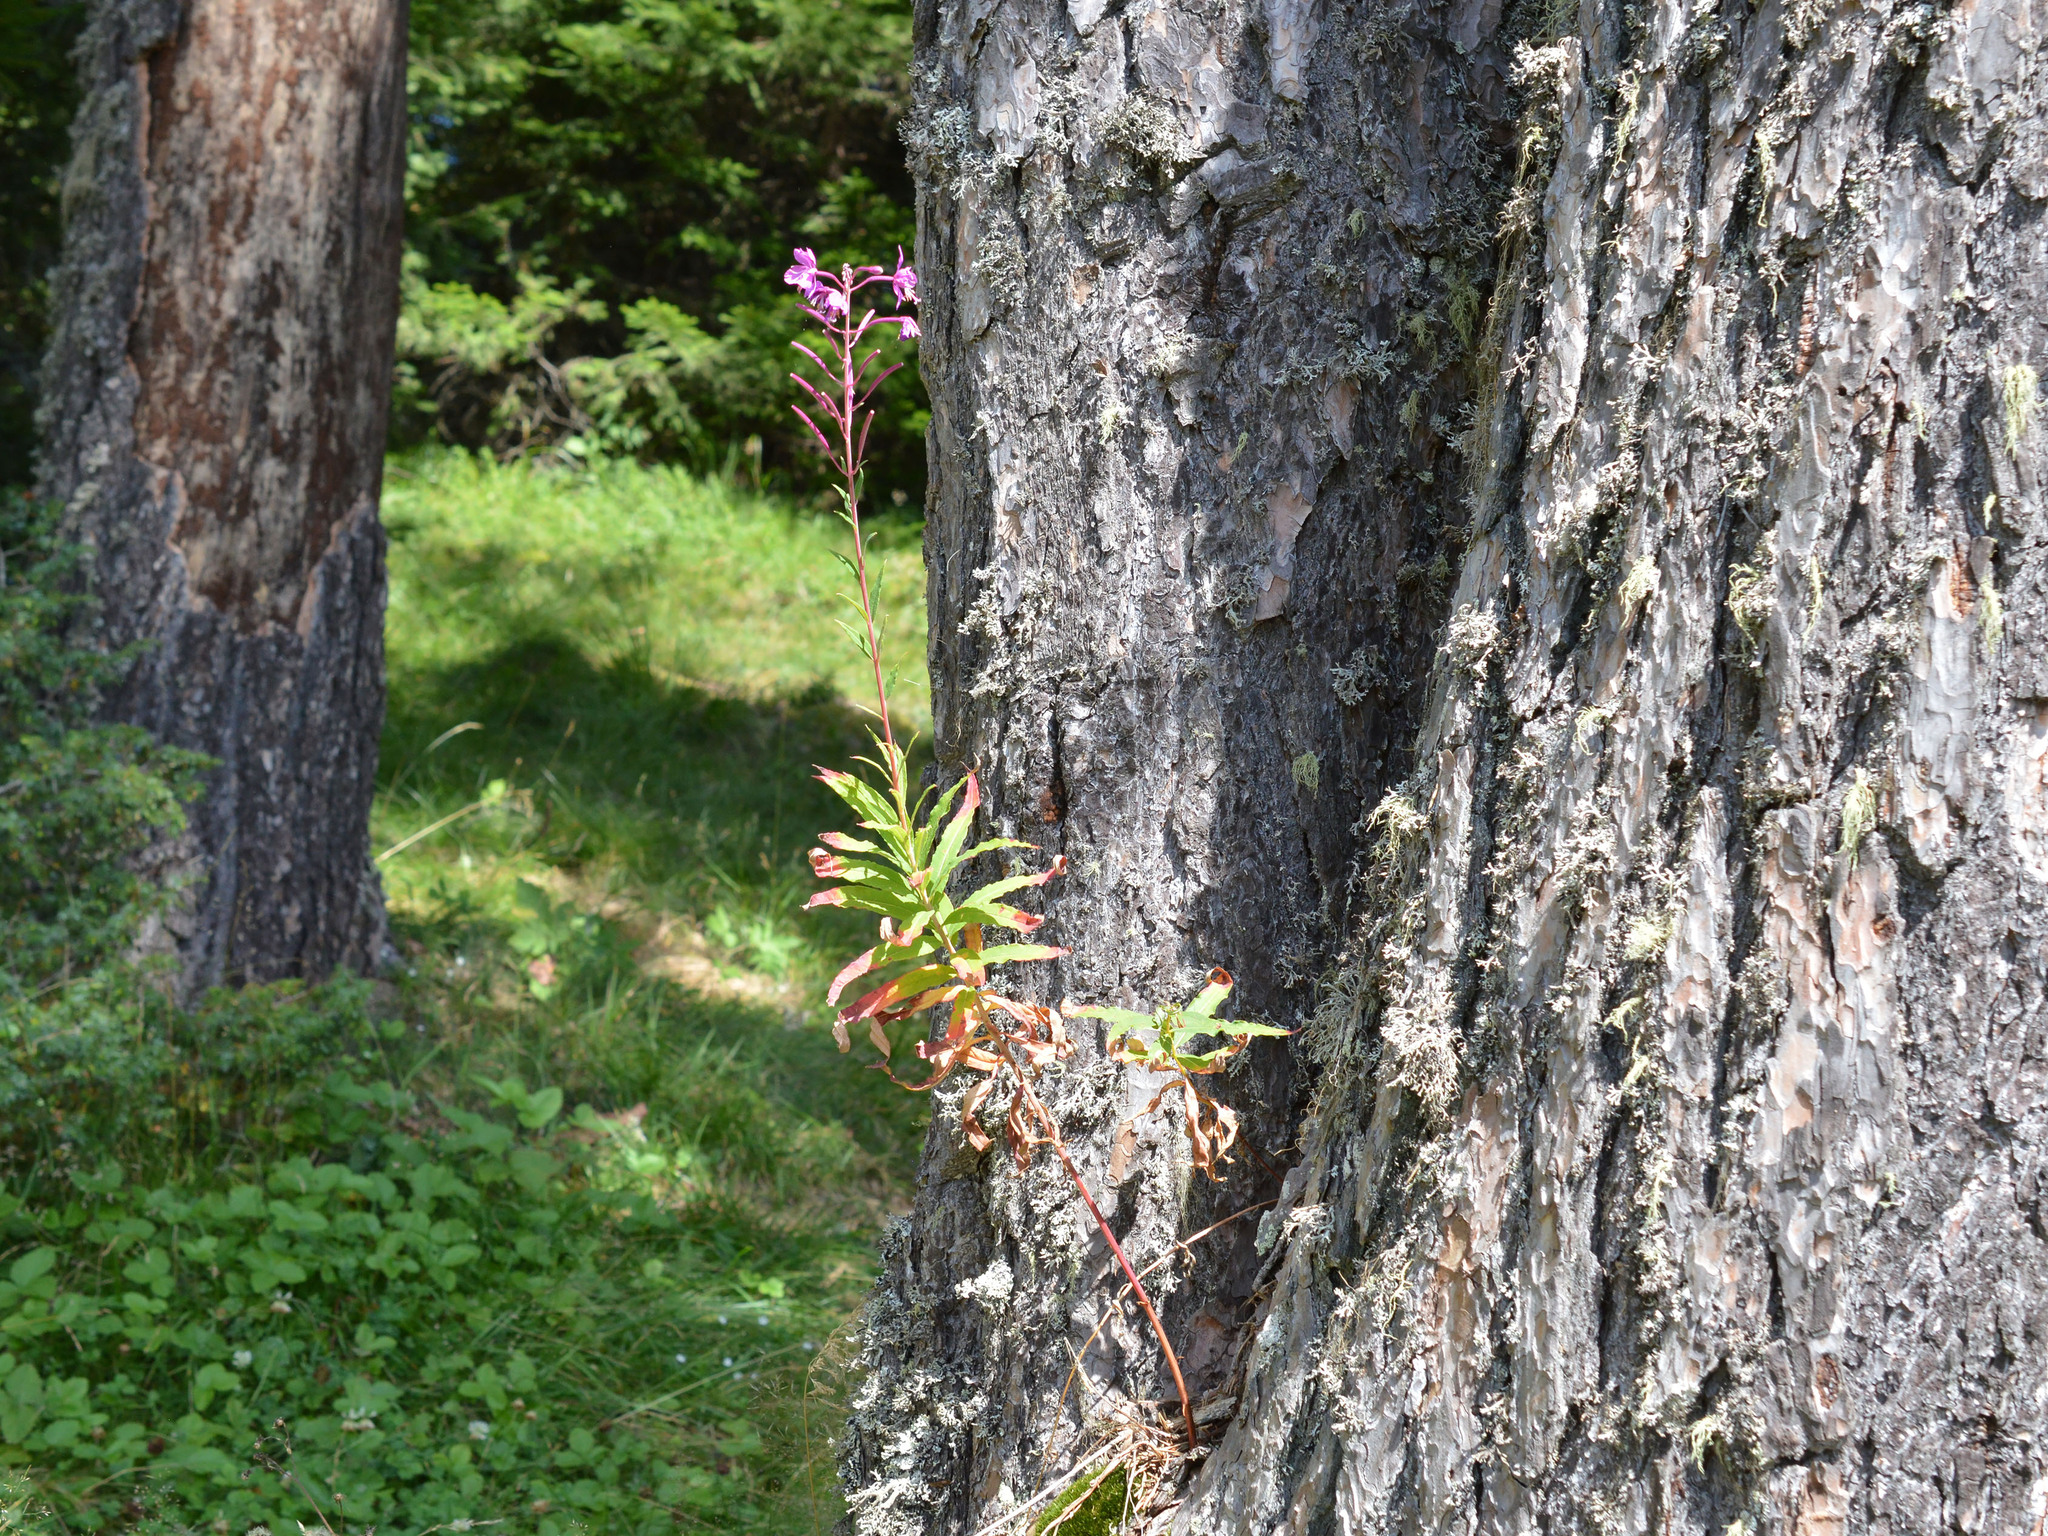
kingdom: Plantae
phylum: Tracheophyta
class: Magnoliopsida
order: Myrtales
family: Onagraceae
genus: Chamaenerion
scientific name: Chamaenerion angustifolium
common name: Fireweed
